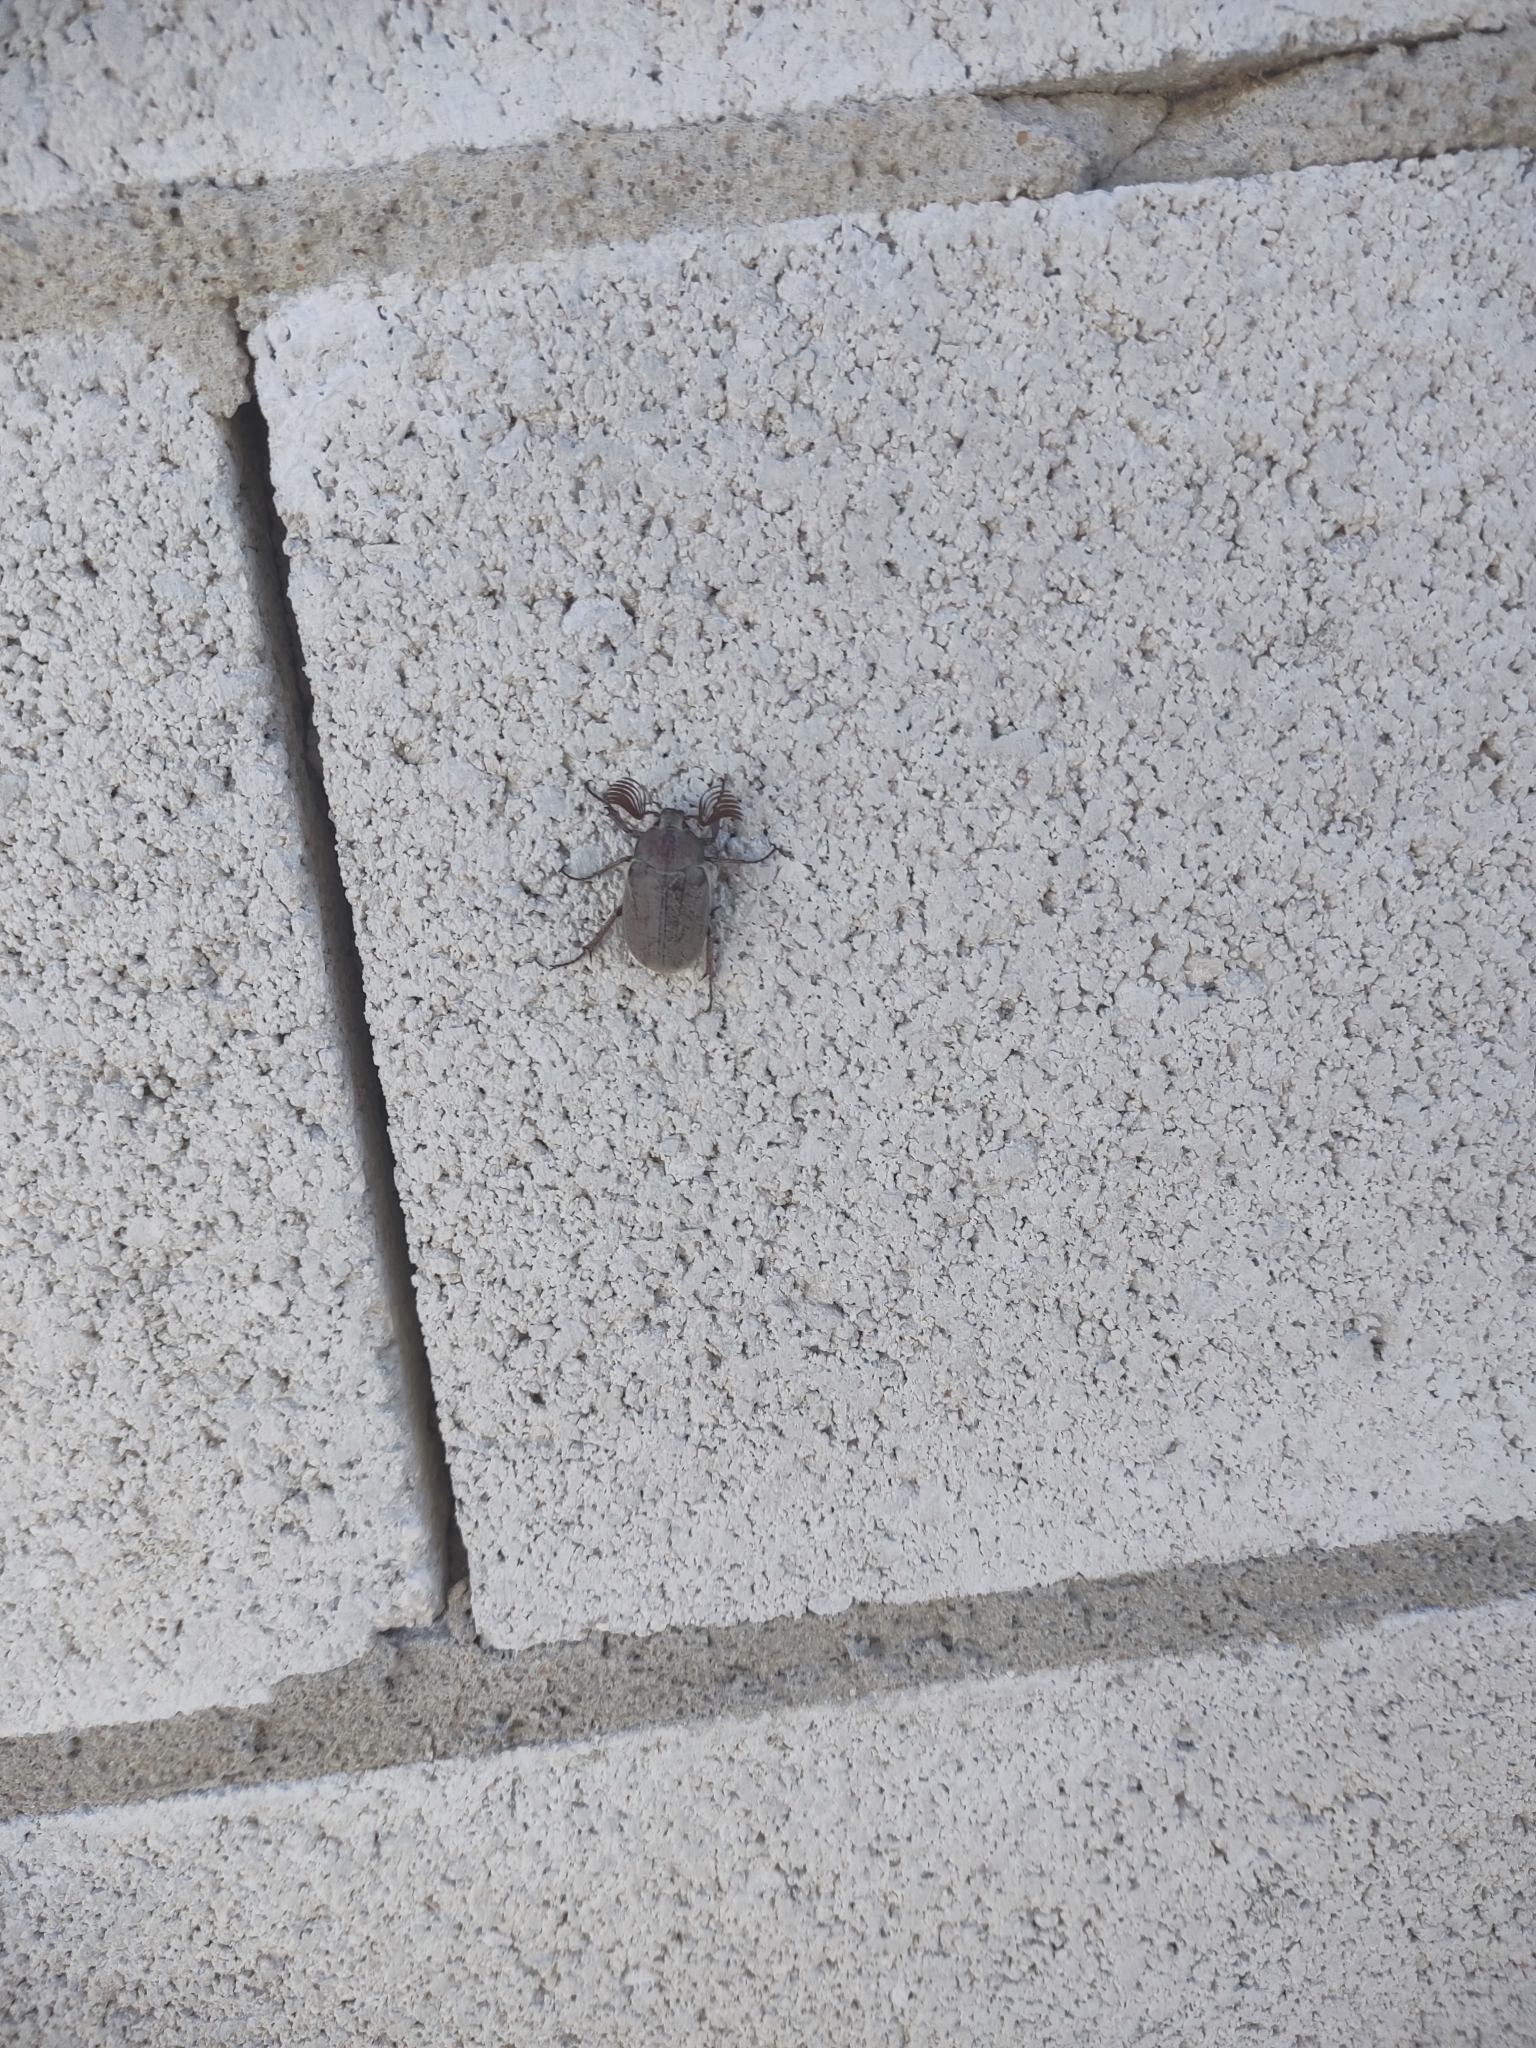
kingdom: Animalia
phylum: Arthropoda
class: Insecta
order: Coleoptera
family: Scarabaeidae
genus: Melolontha
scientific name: Melolontha papposa
